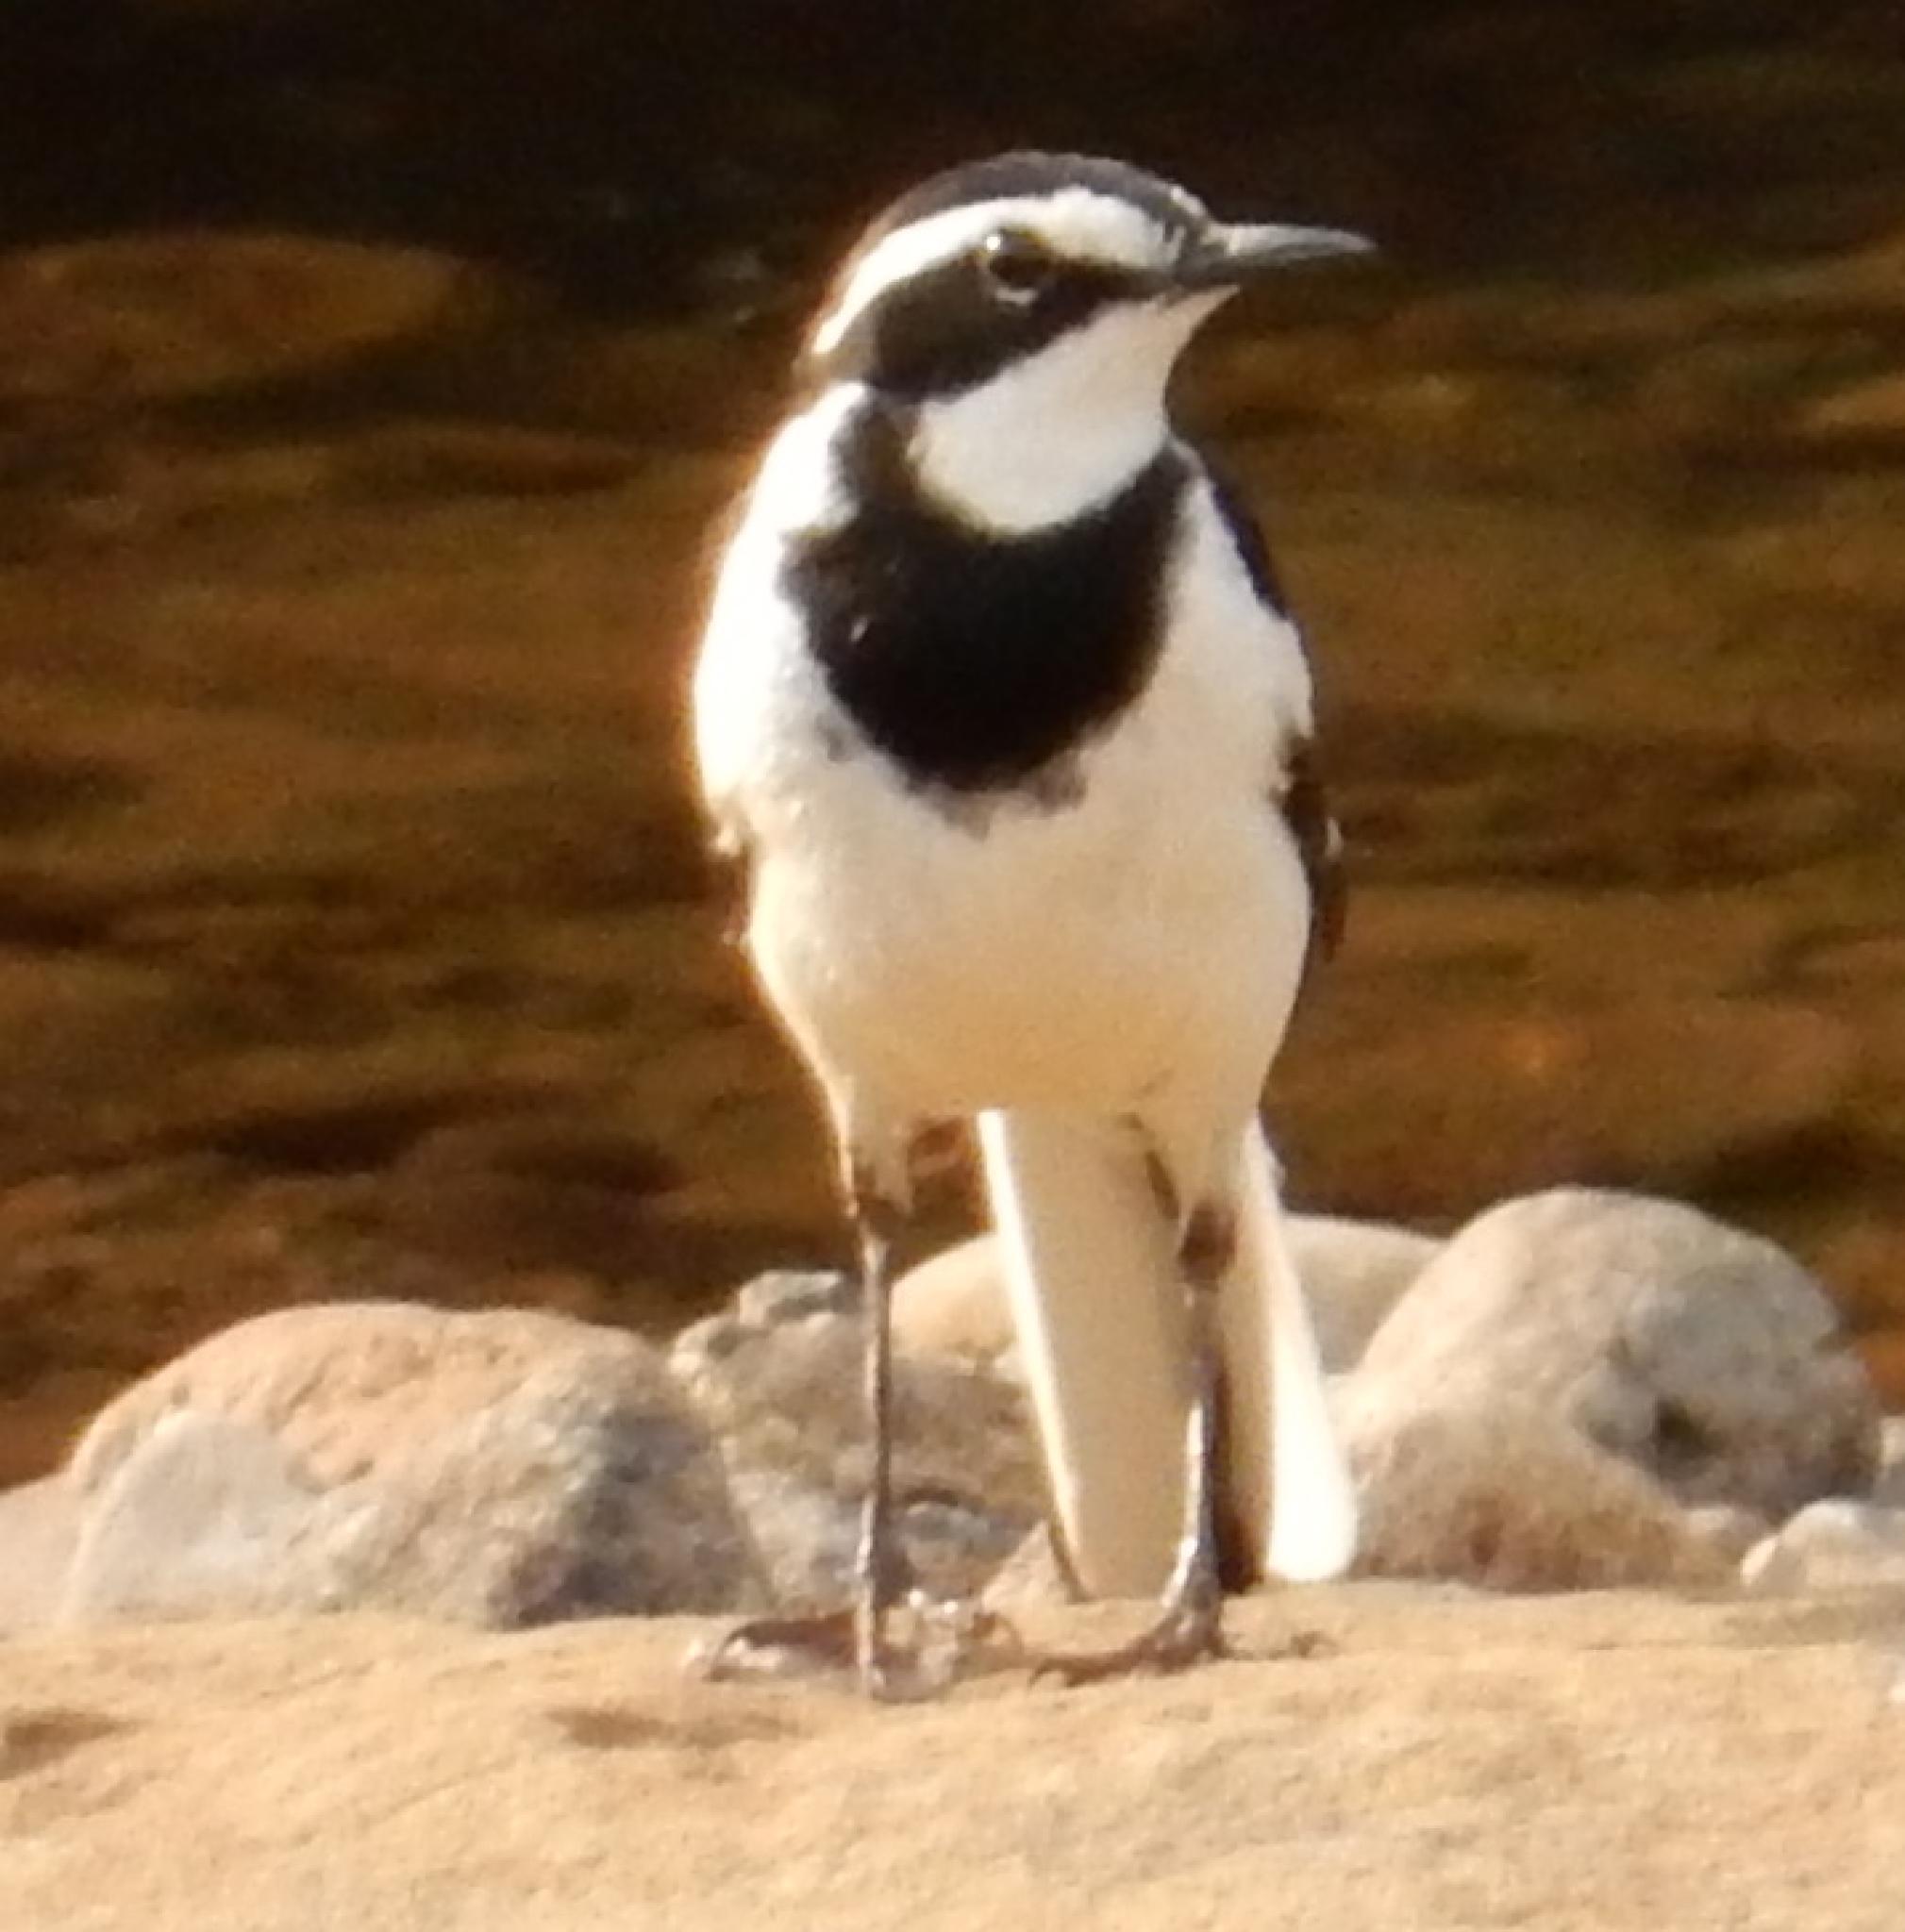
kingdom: Animalia
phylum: Chordata
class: Aves
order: Passeriformes
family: Motacillidae
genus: Motacilla
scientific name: Motacilla aguimp
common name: African pied wagtail
